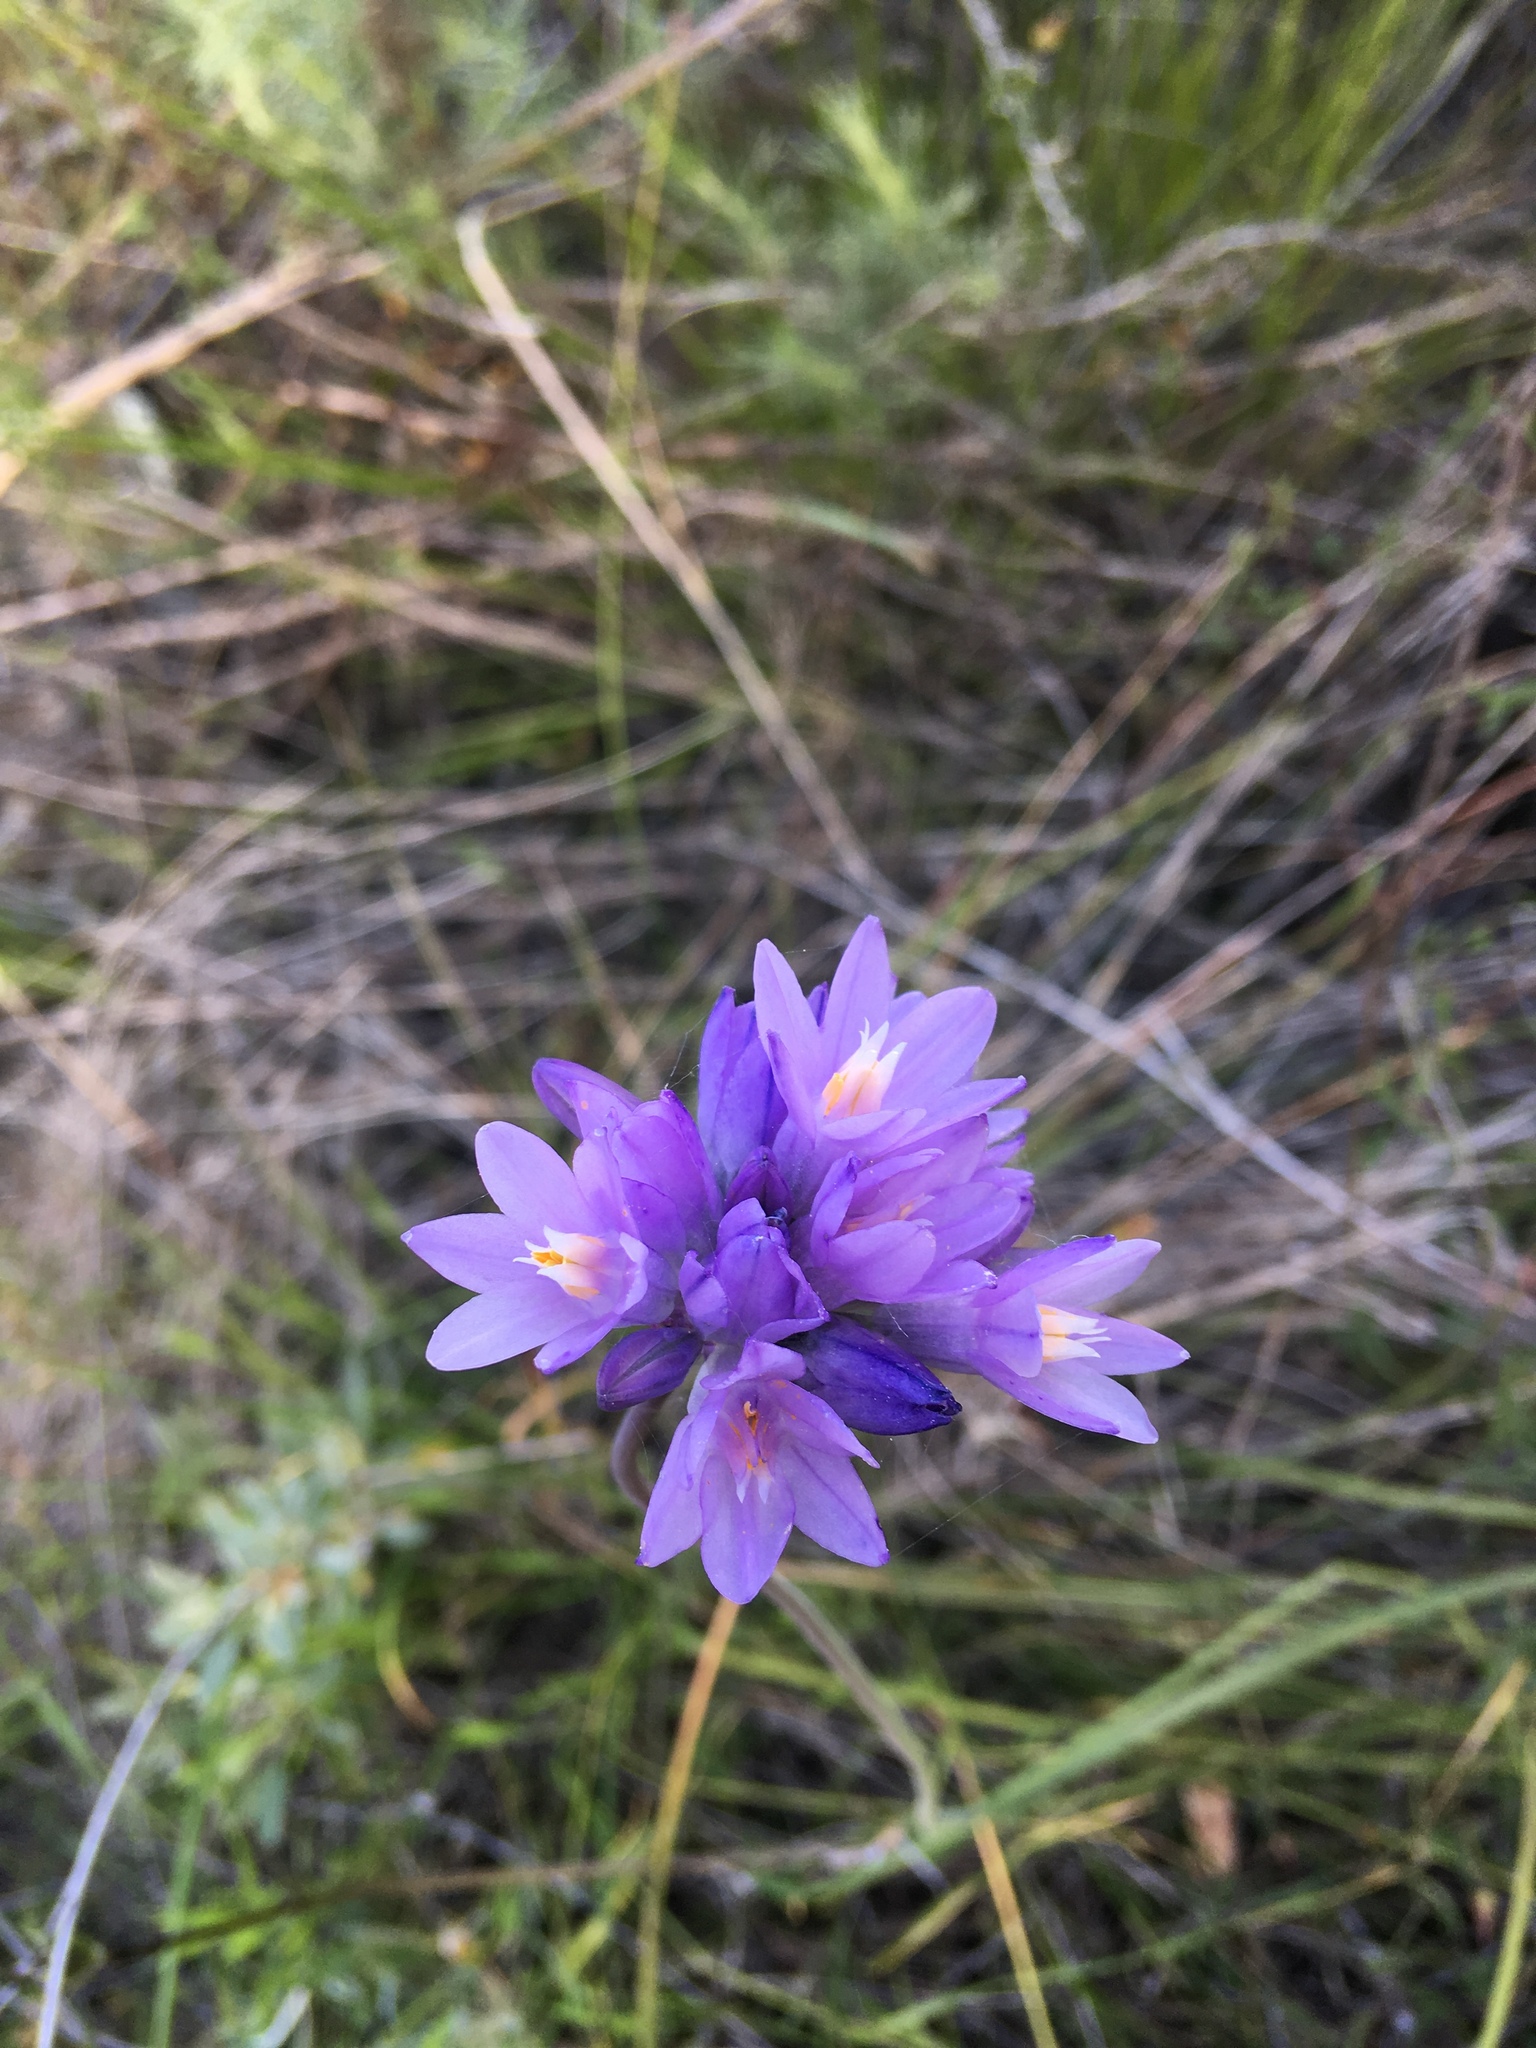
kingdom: Plantae
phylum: Tracheophyta
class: Liliopsida
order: Asparagales
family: Asparagaceae
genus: Dipterostemon
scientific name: Dipterostemon capitatus
